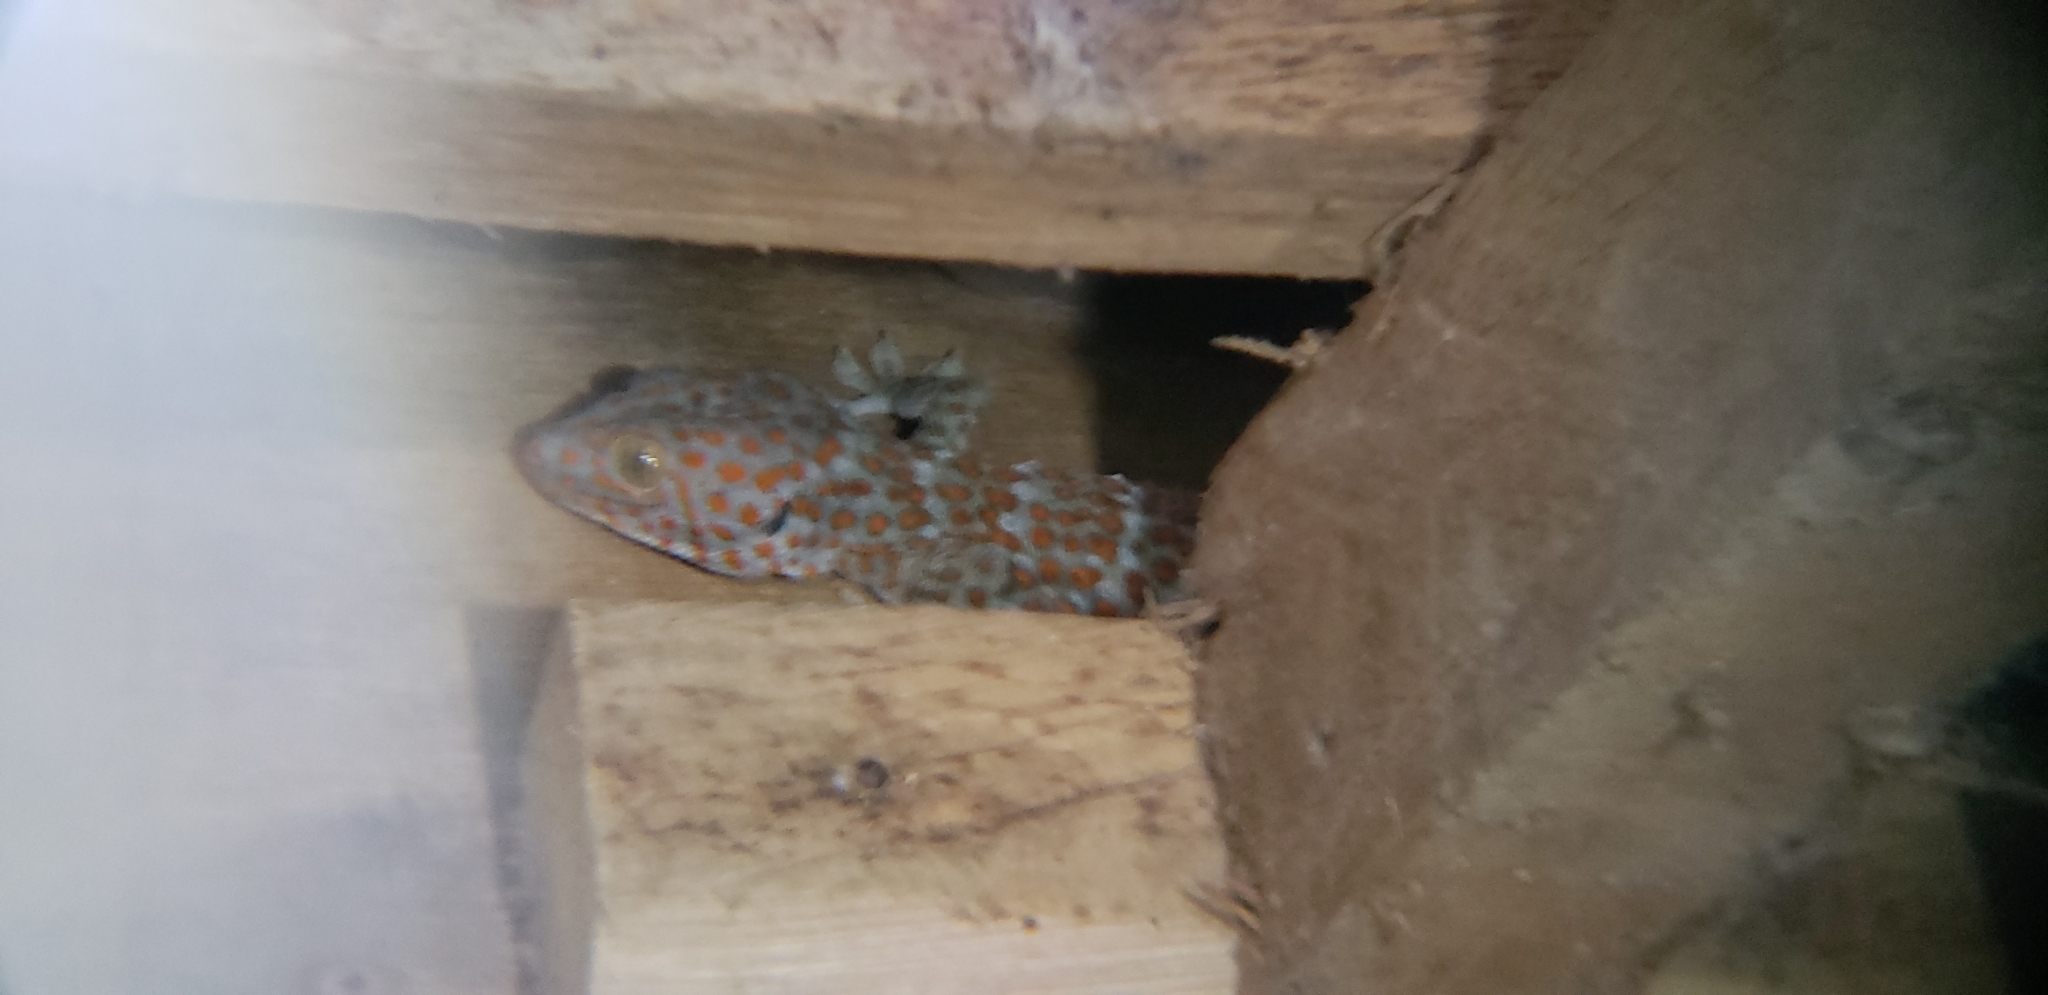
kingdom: Animalia
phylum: Chordata
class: Squamata
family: Gekkonidae
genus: Gekko
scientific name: Gekko gecko
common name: Tokay gecko
